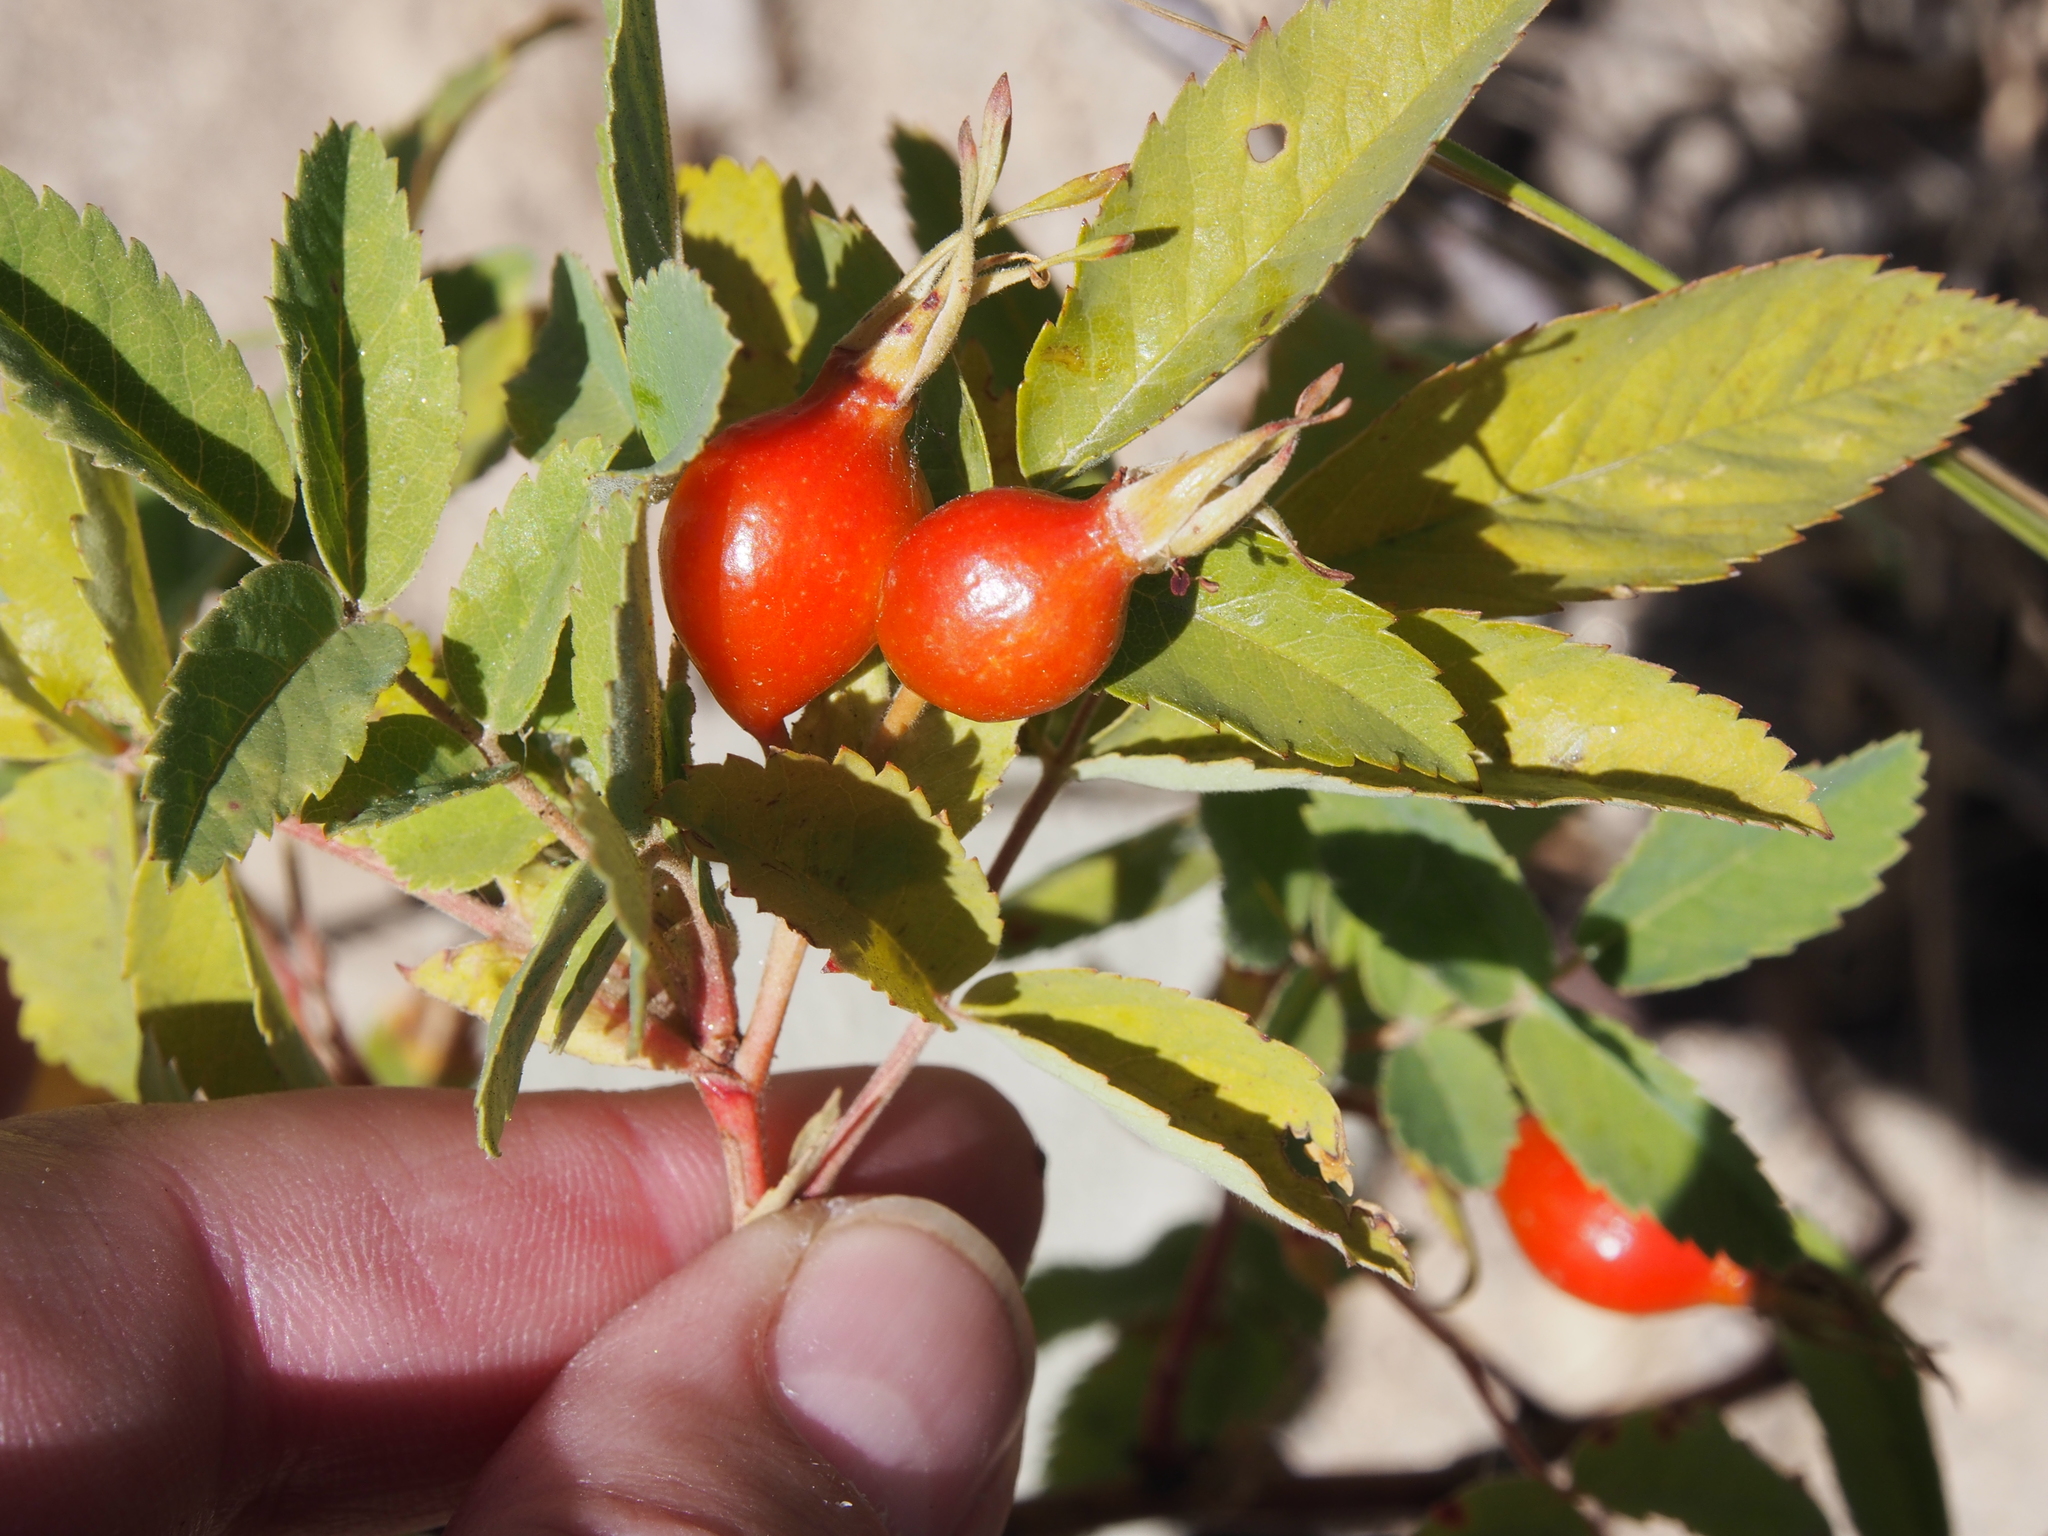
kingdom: Plantae
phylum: Tracheophyta
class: Magnoliopsida
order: Rosales
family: Rosaceae
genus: Rosa
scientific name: Rosa woodsii
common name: Woods's rose
